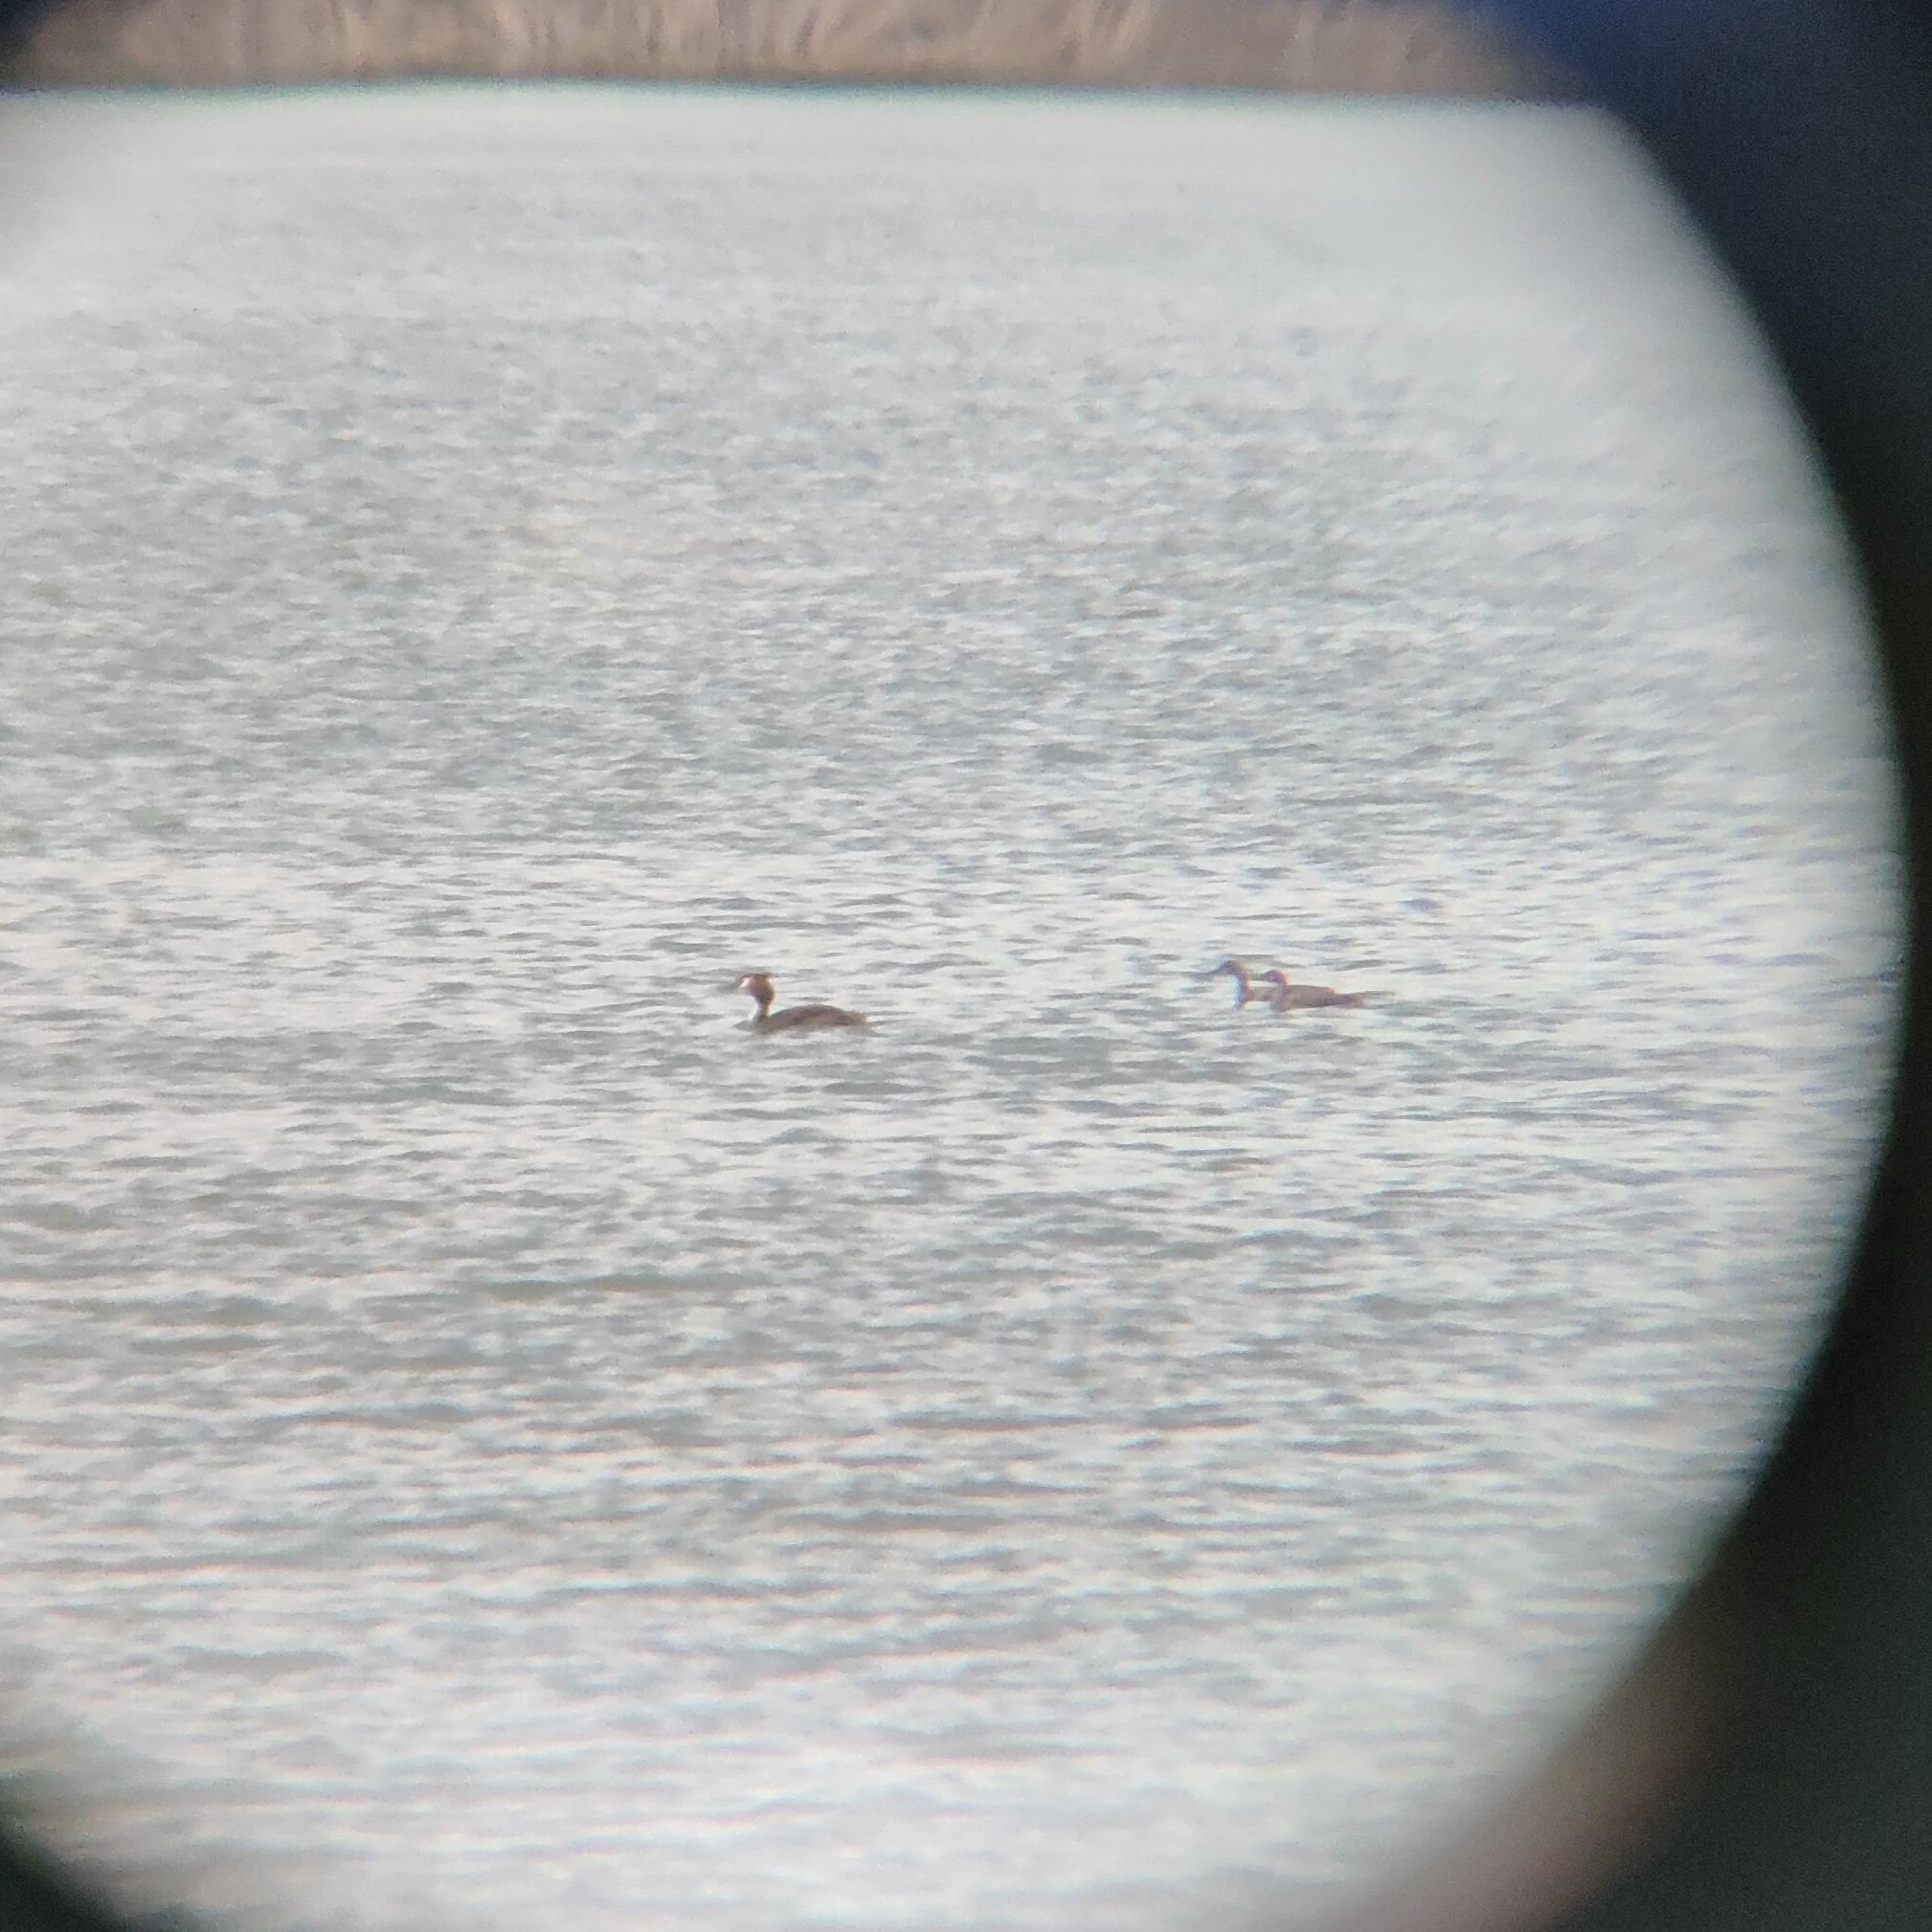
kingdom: Animalia
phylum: Chordata
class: Aves
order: Podicipediformes
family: Podicipedidae
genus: Podiceps
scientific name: Podiceps cristatus
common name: Great crested grebe
